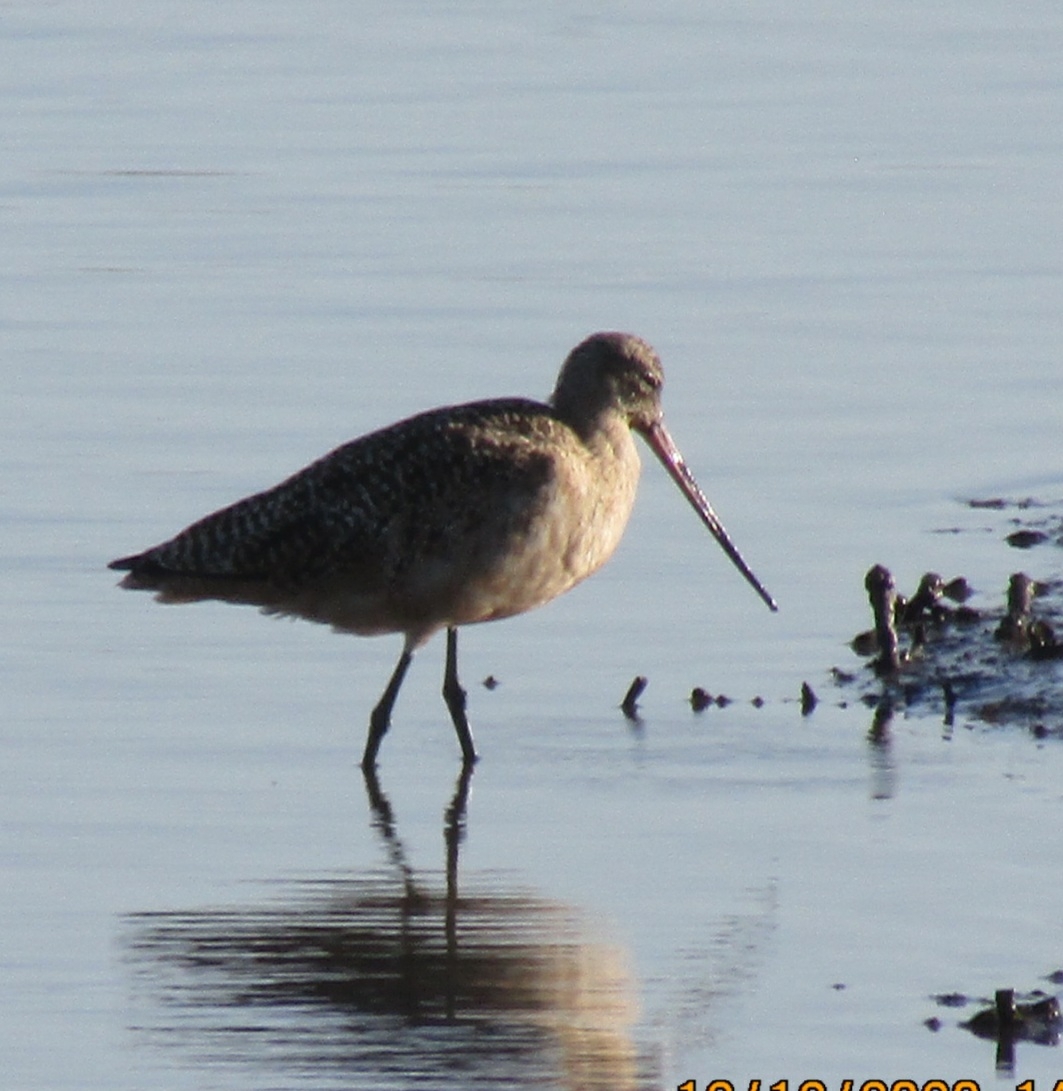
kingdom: Animalia
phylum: Chordata
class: Aves
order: Charadriiformes
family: Scolopacidae
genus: Limosa
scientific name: Limosa fedoa
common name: Marbled godwit
